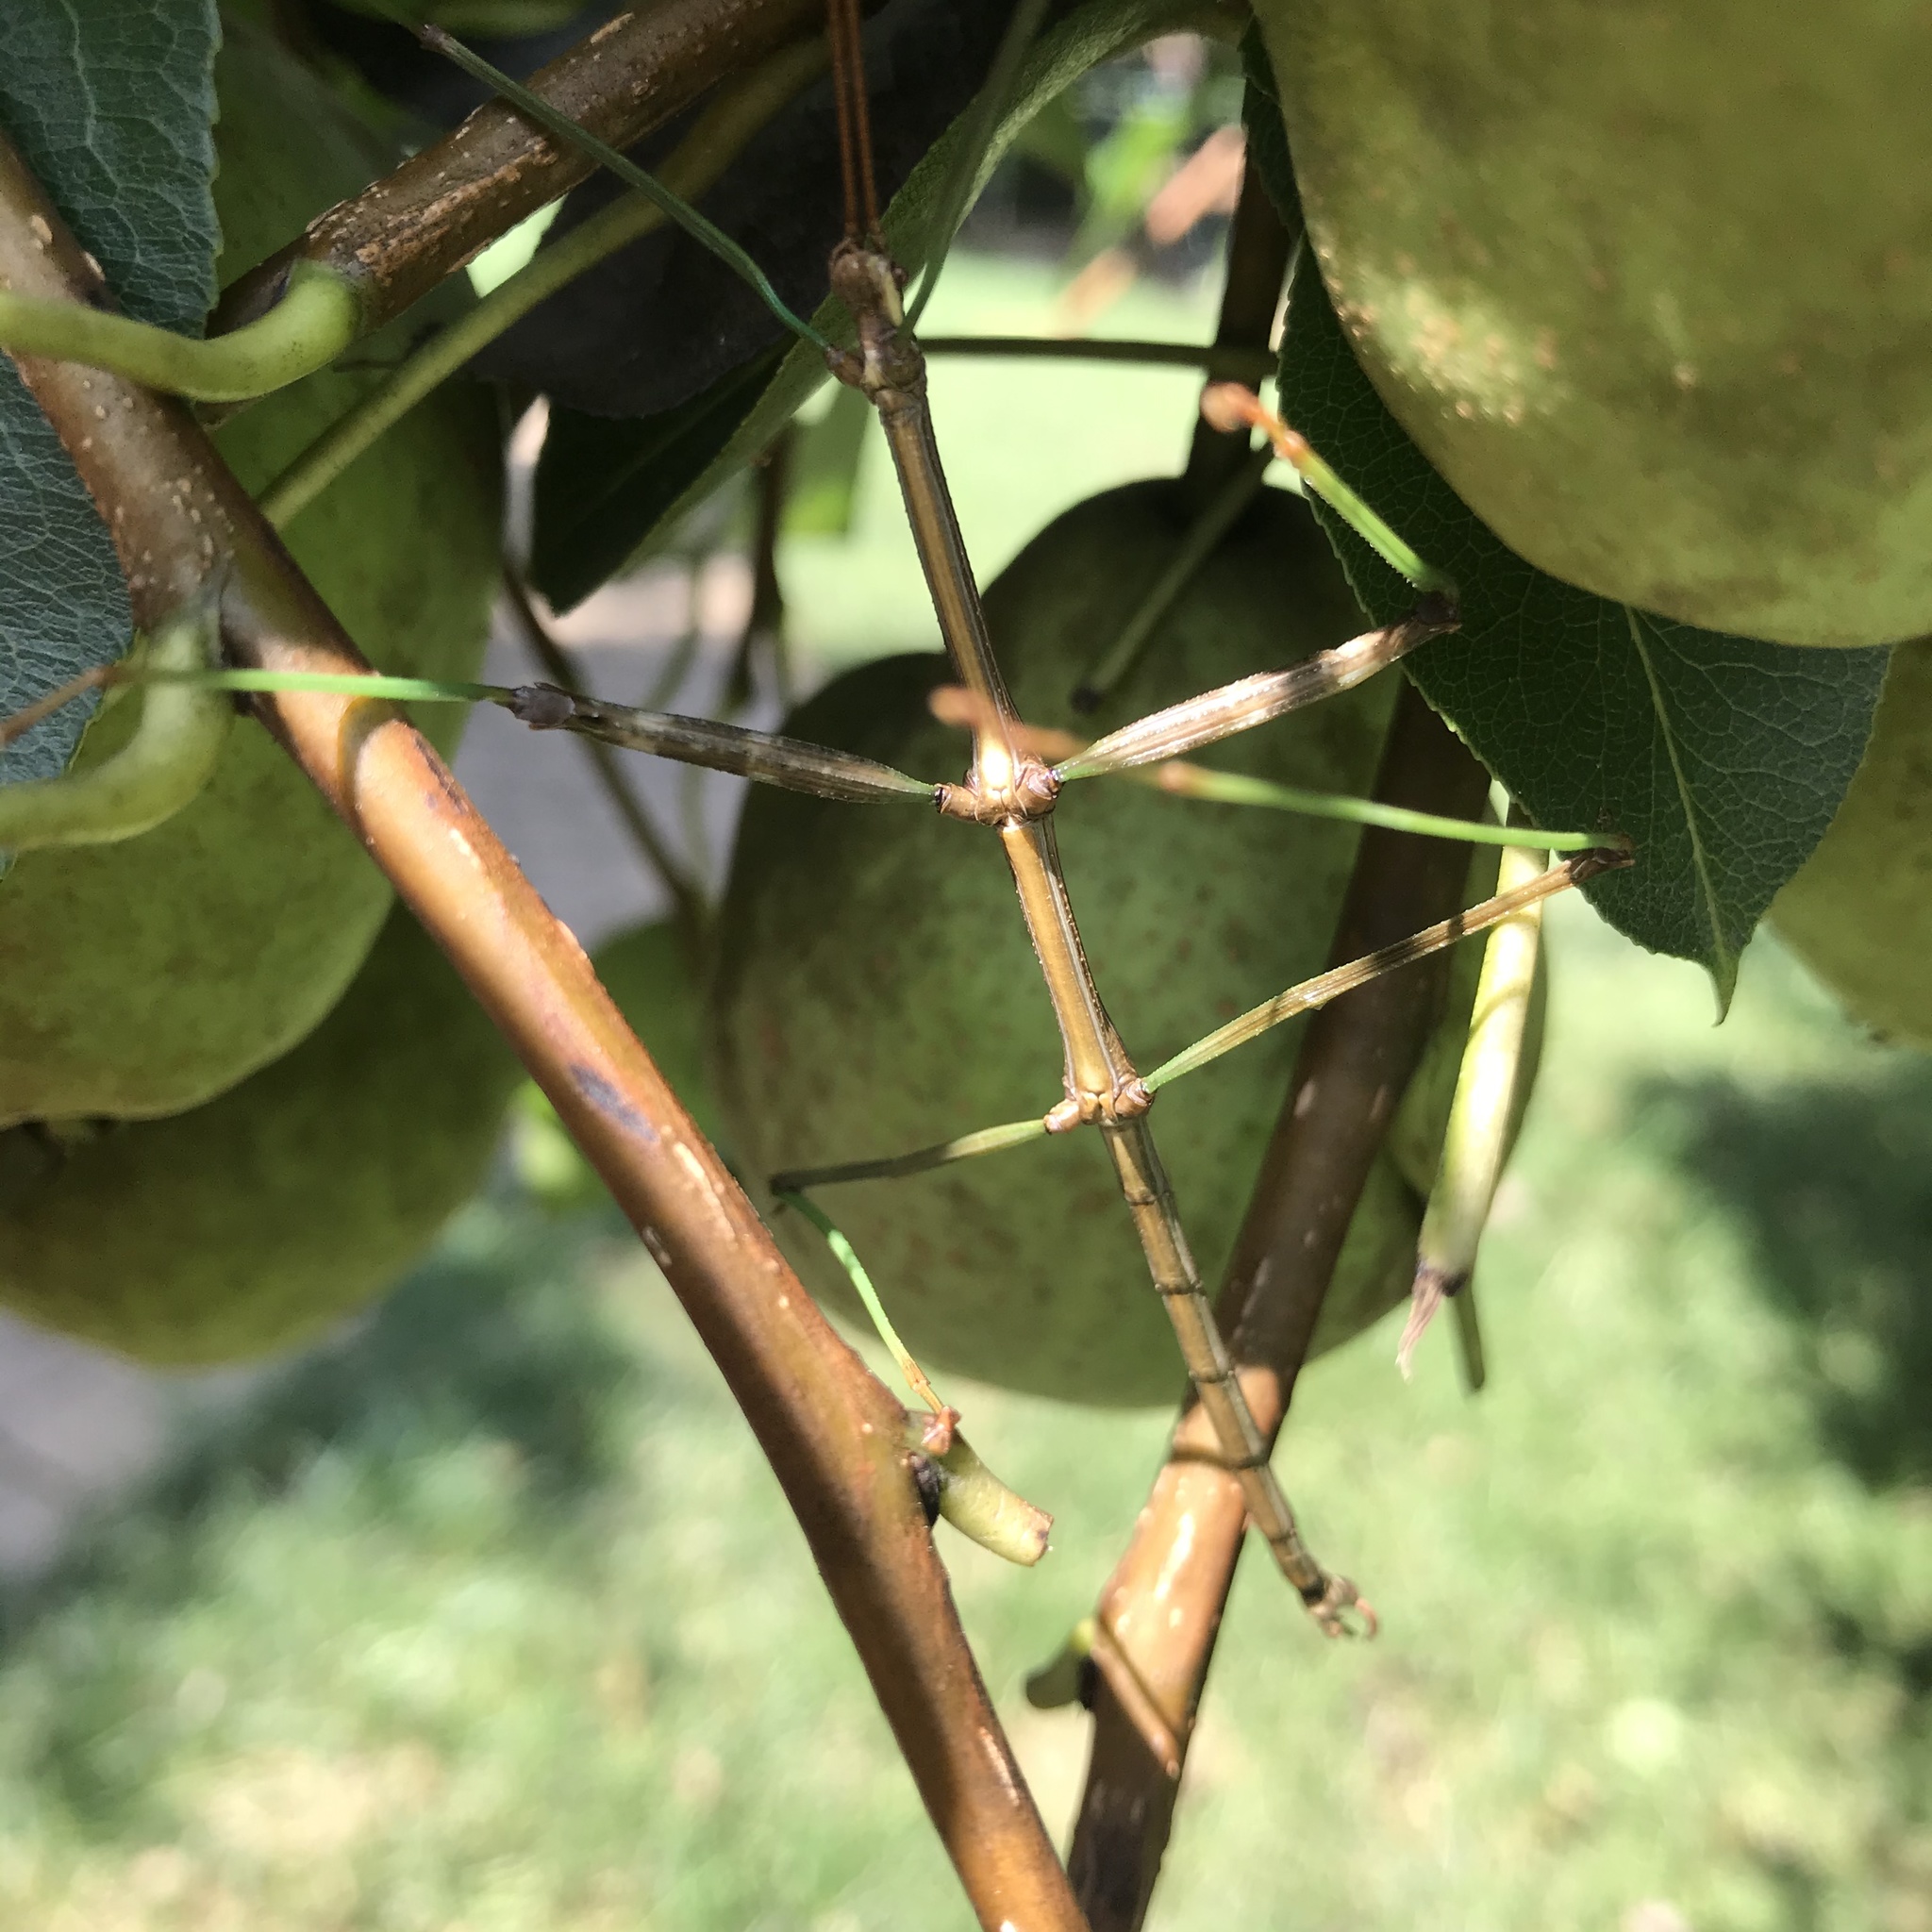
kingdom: Animalia
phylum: Arthropoda
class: Insecta
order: Phasmida
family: Diapheromeridae
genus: Diapheromera
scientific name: Diapheromera femorata
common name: Common american walkingstick
